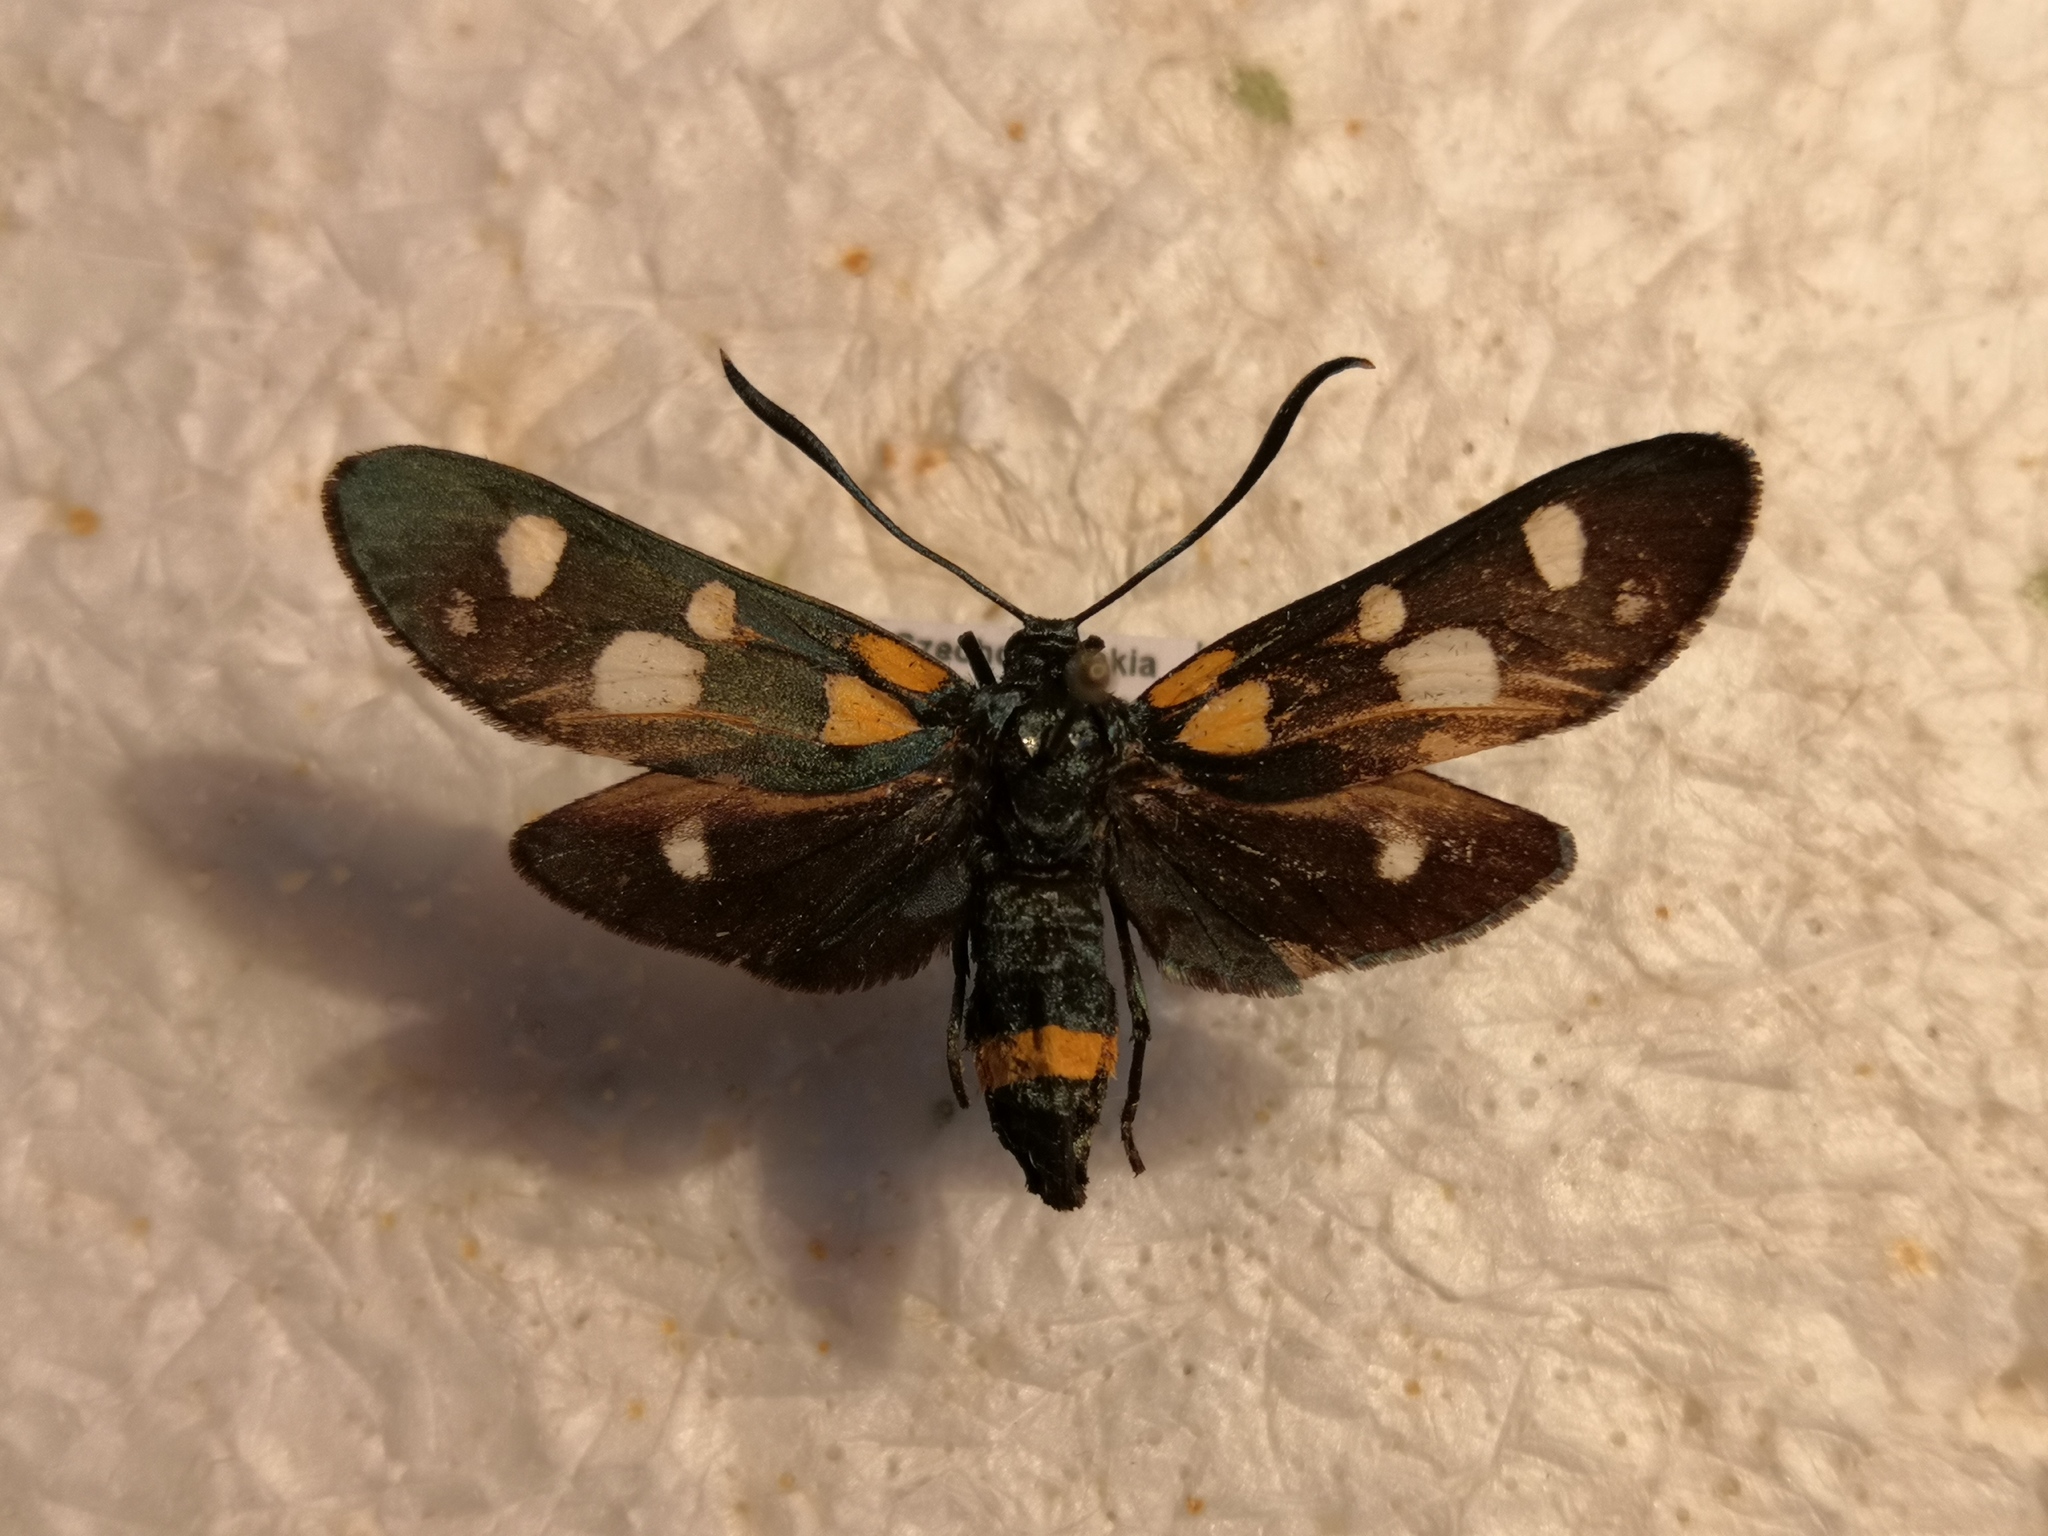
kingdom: Animalia
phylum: Arthropoda
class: Insecta
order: Lepidoptera
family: Zygaenidae
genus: Zygaena
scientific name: Zygaena ephialtes
